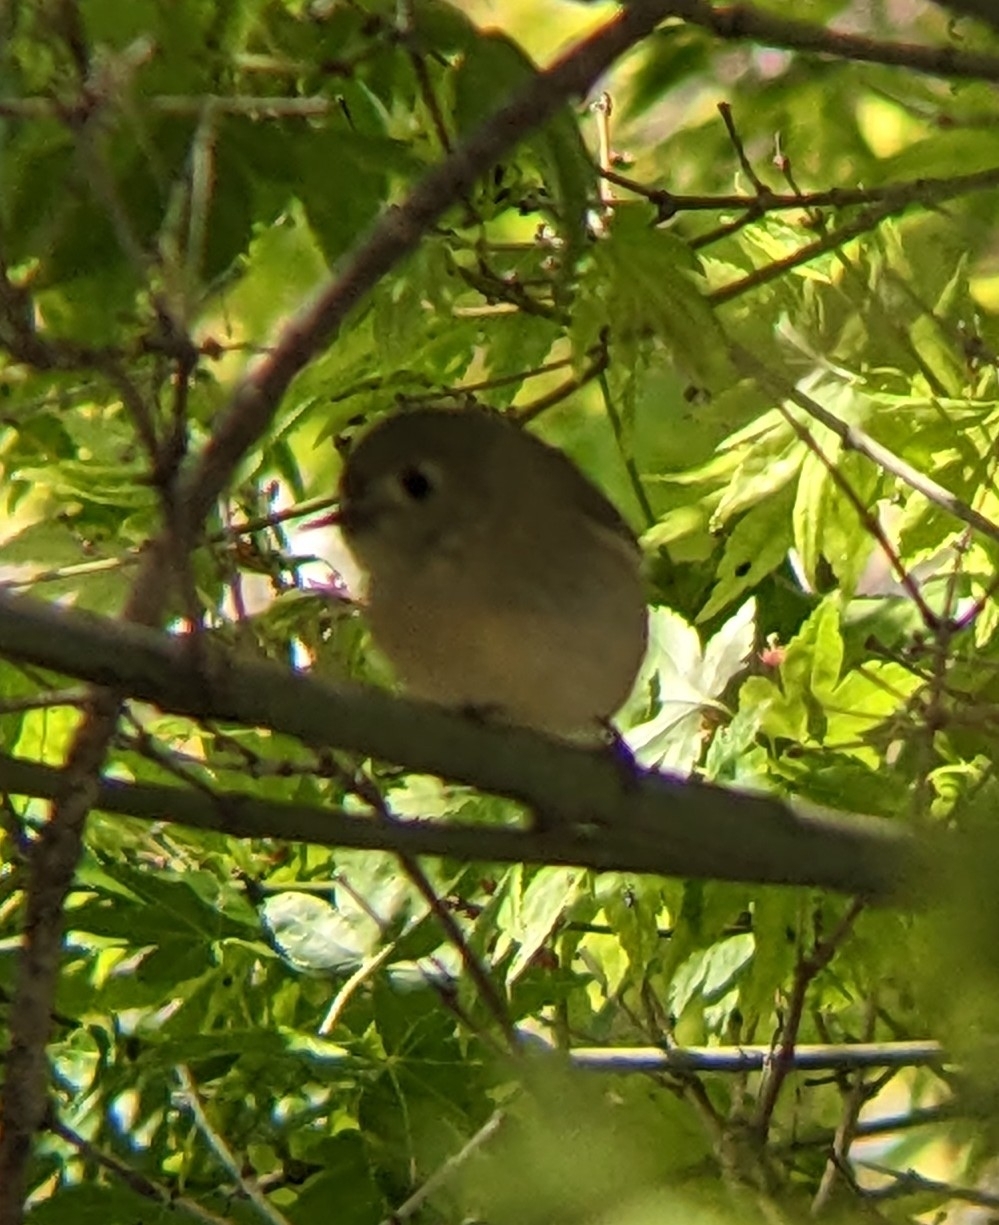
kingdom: Animalia
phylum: Chordata
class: Aves
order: Passeriformes
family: Regulidae
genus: Regulus
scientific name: Regulus calendula
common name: Ruby-crowned kinglet
